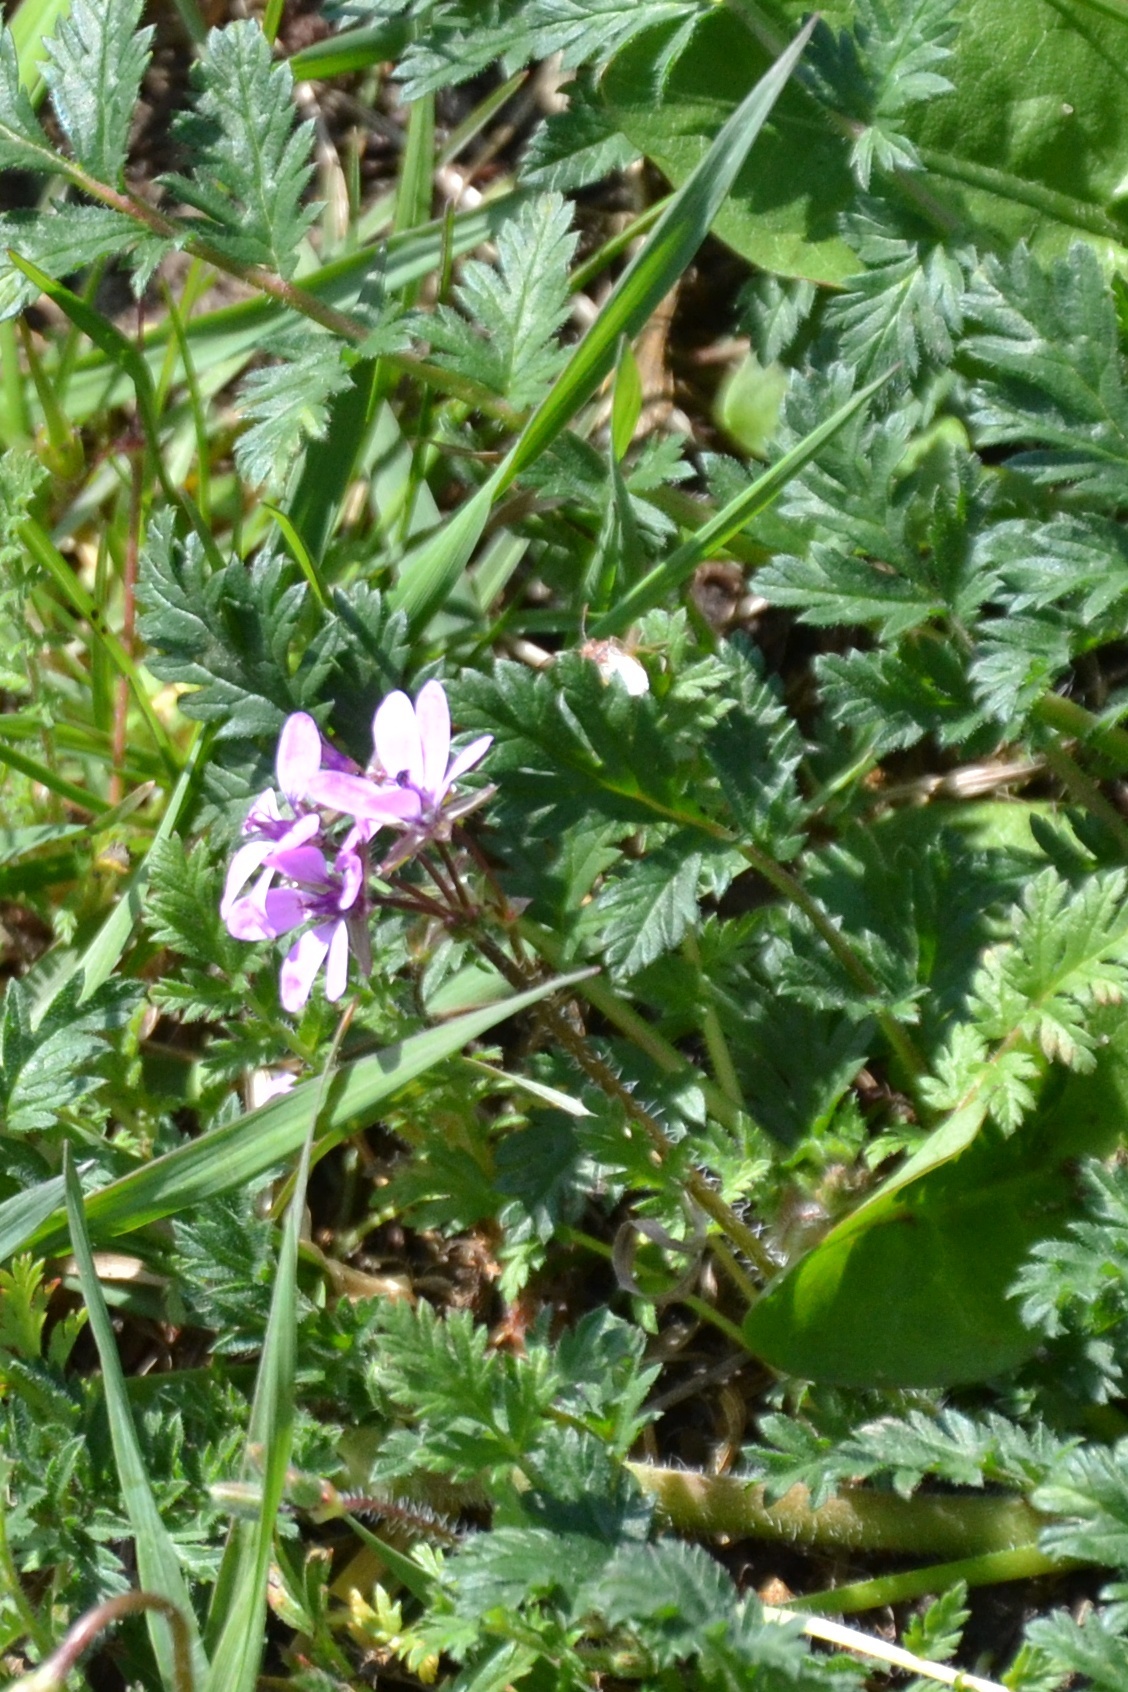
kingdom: Plantae
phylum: Tracheophyta
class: Magnoliopsida
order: Geraniales
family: Geraniaceae
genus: Erodium
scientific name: Erodium cicutarium
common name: Common stork's-bill
